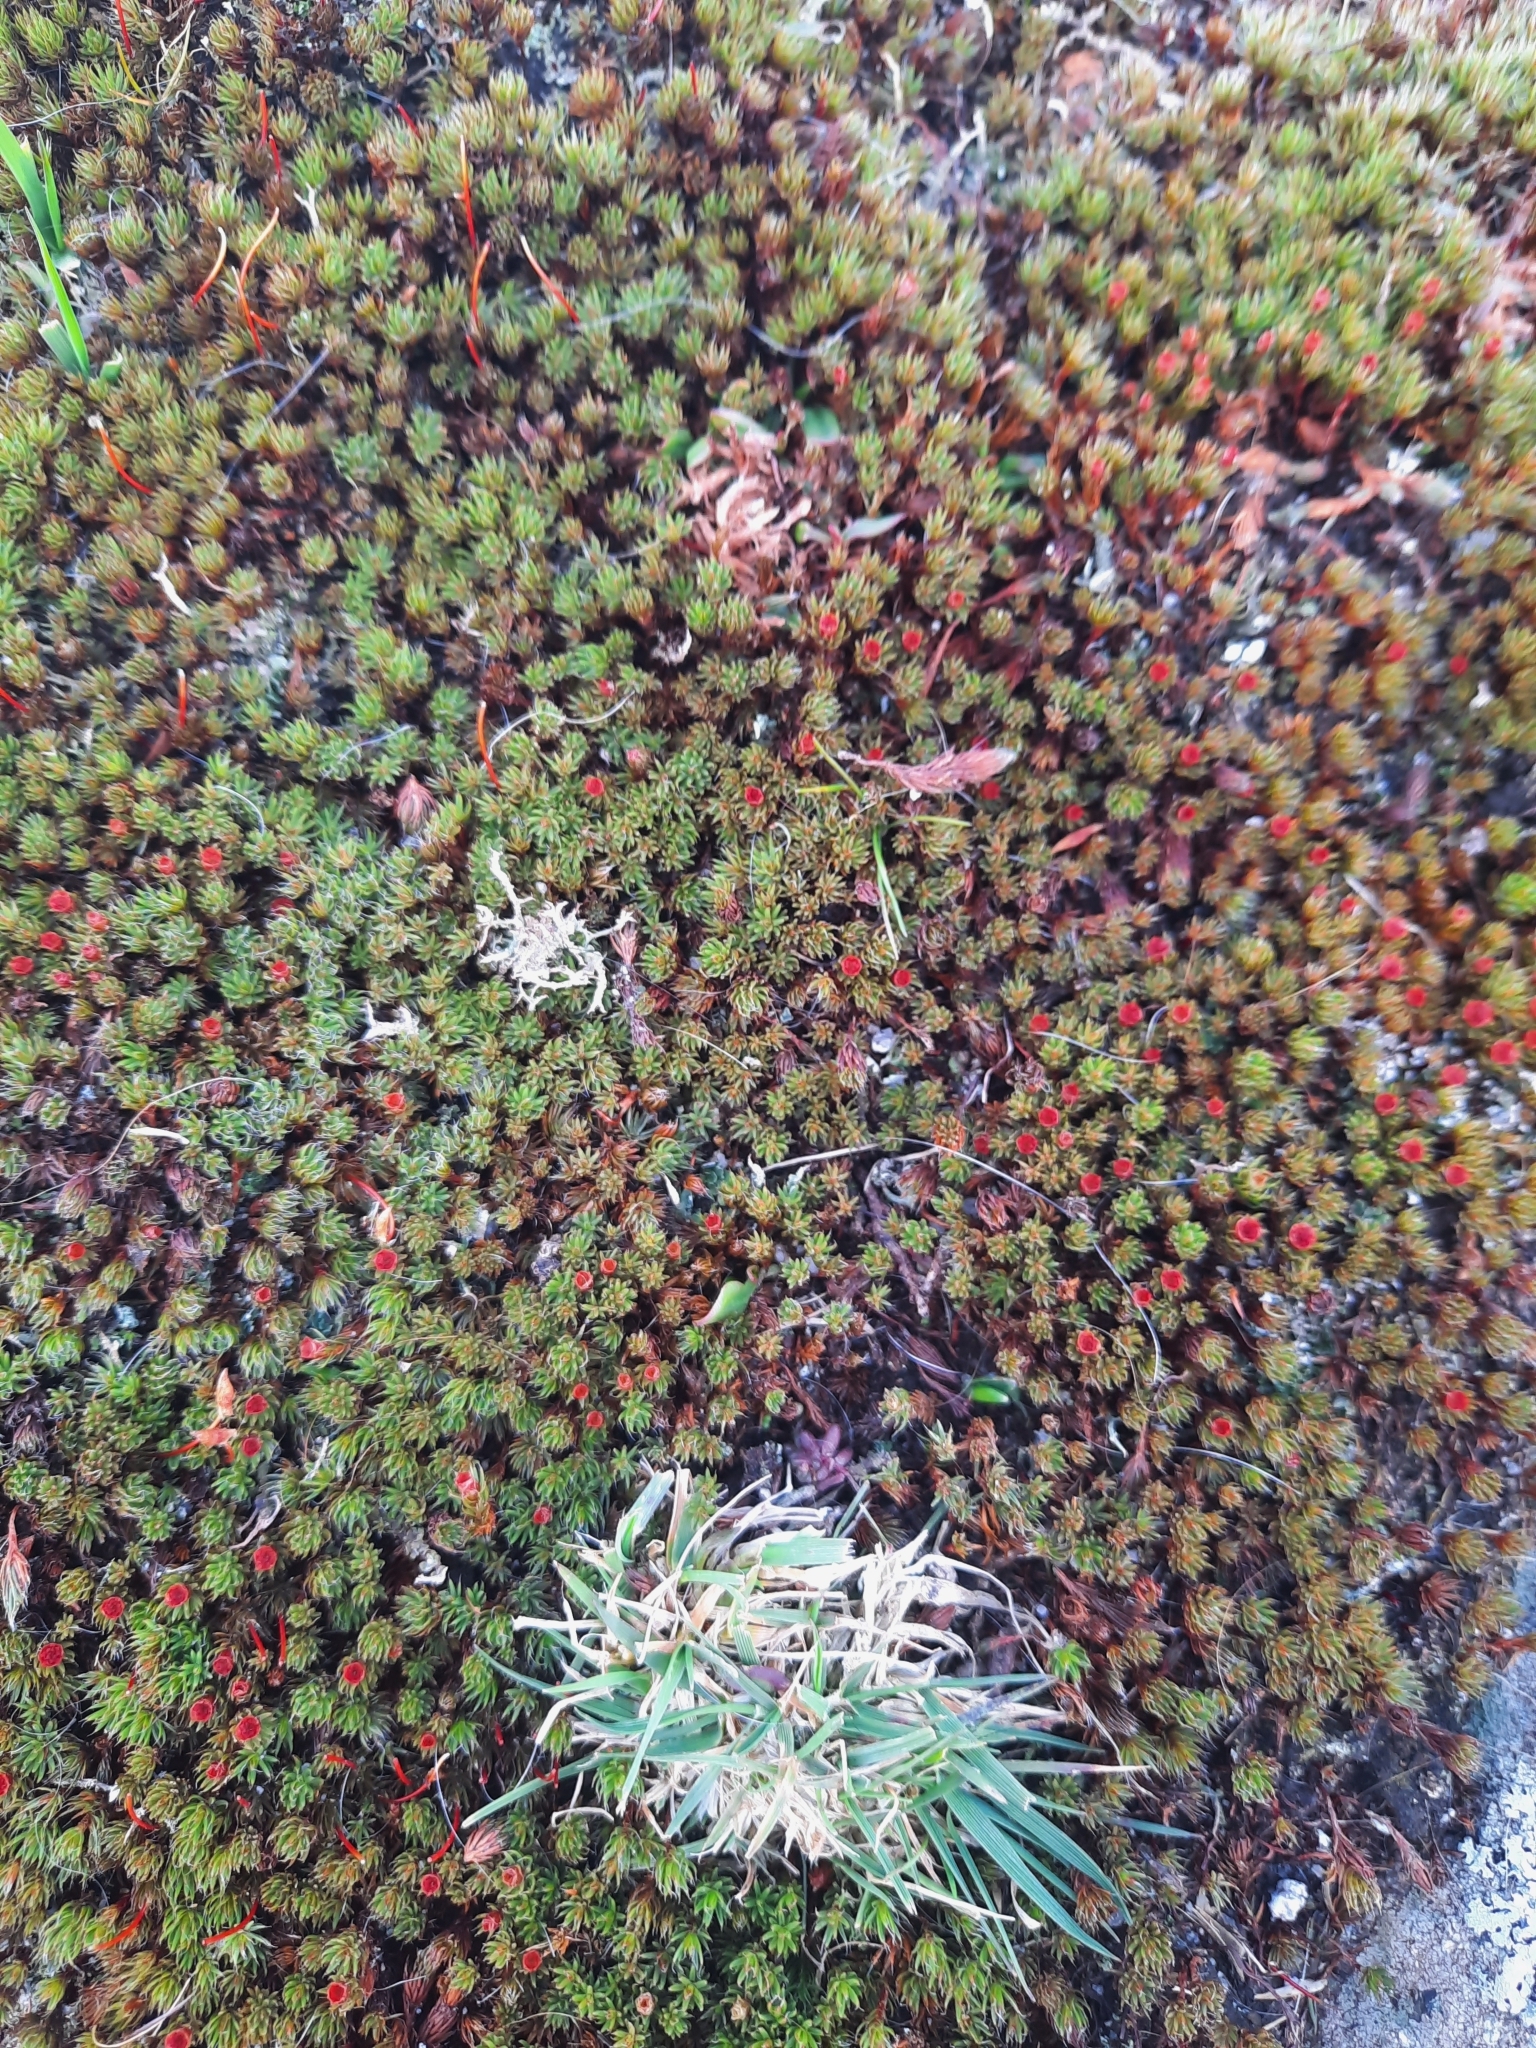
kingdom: Plantae
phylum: Bryophyta
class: Polytrichopsida
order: Polytrichales
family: Polytrichaceae
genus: Polytrichum
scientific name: Polytrichum piliferum
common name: Bristly haircap
